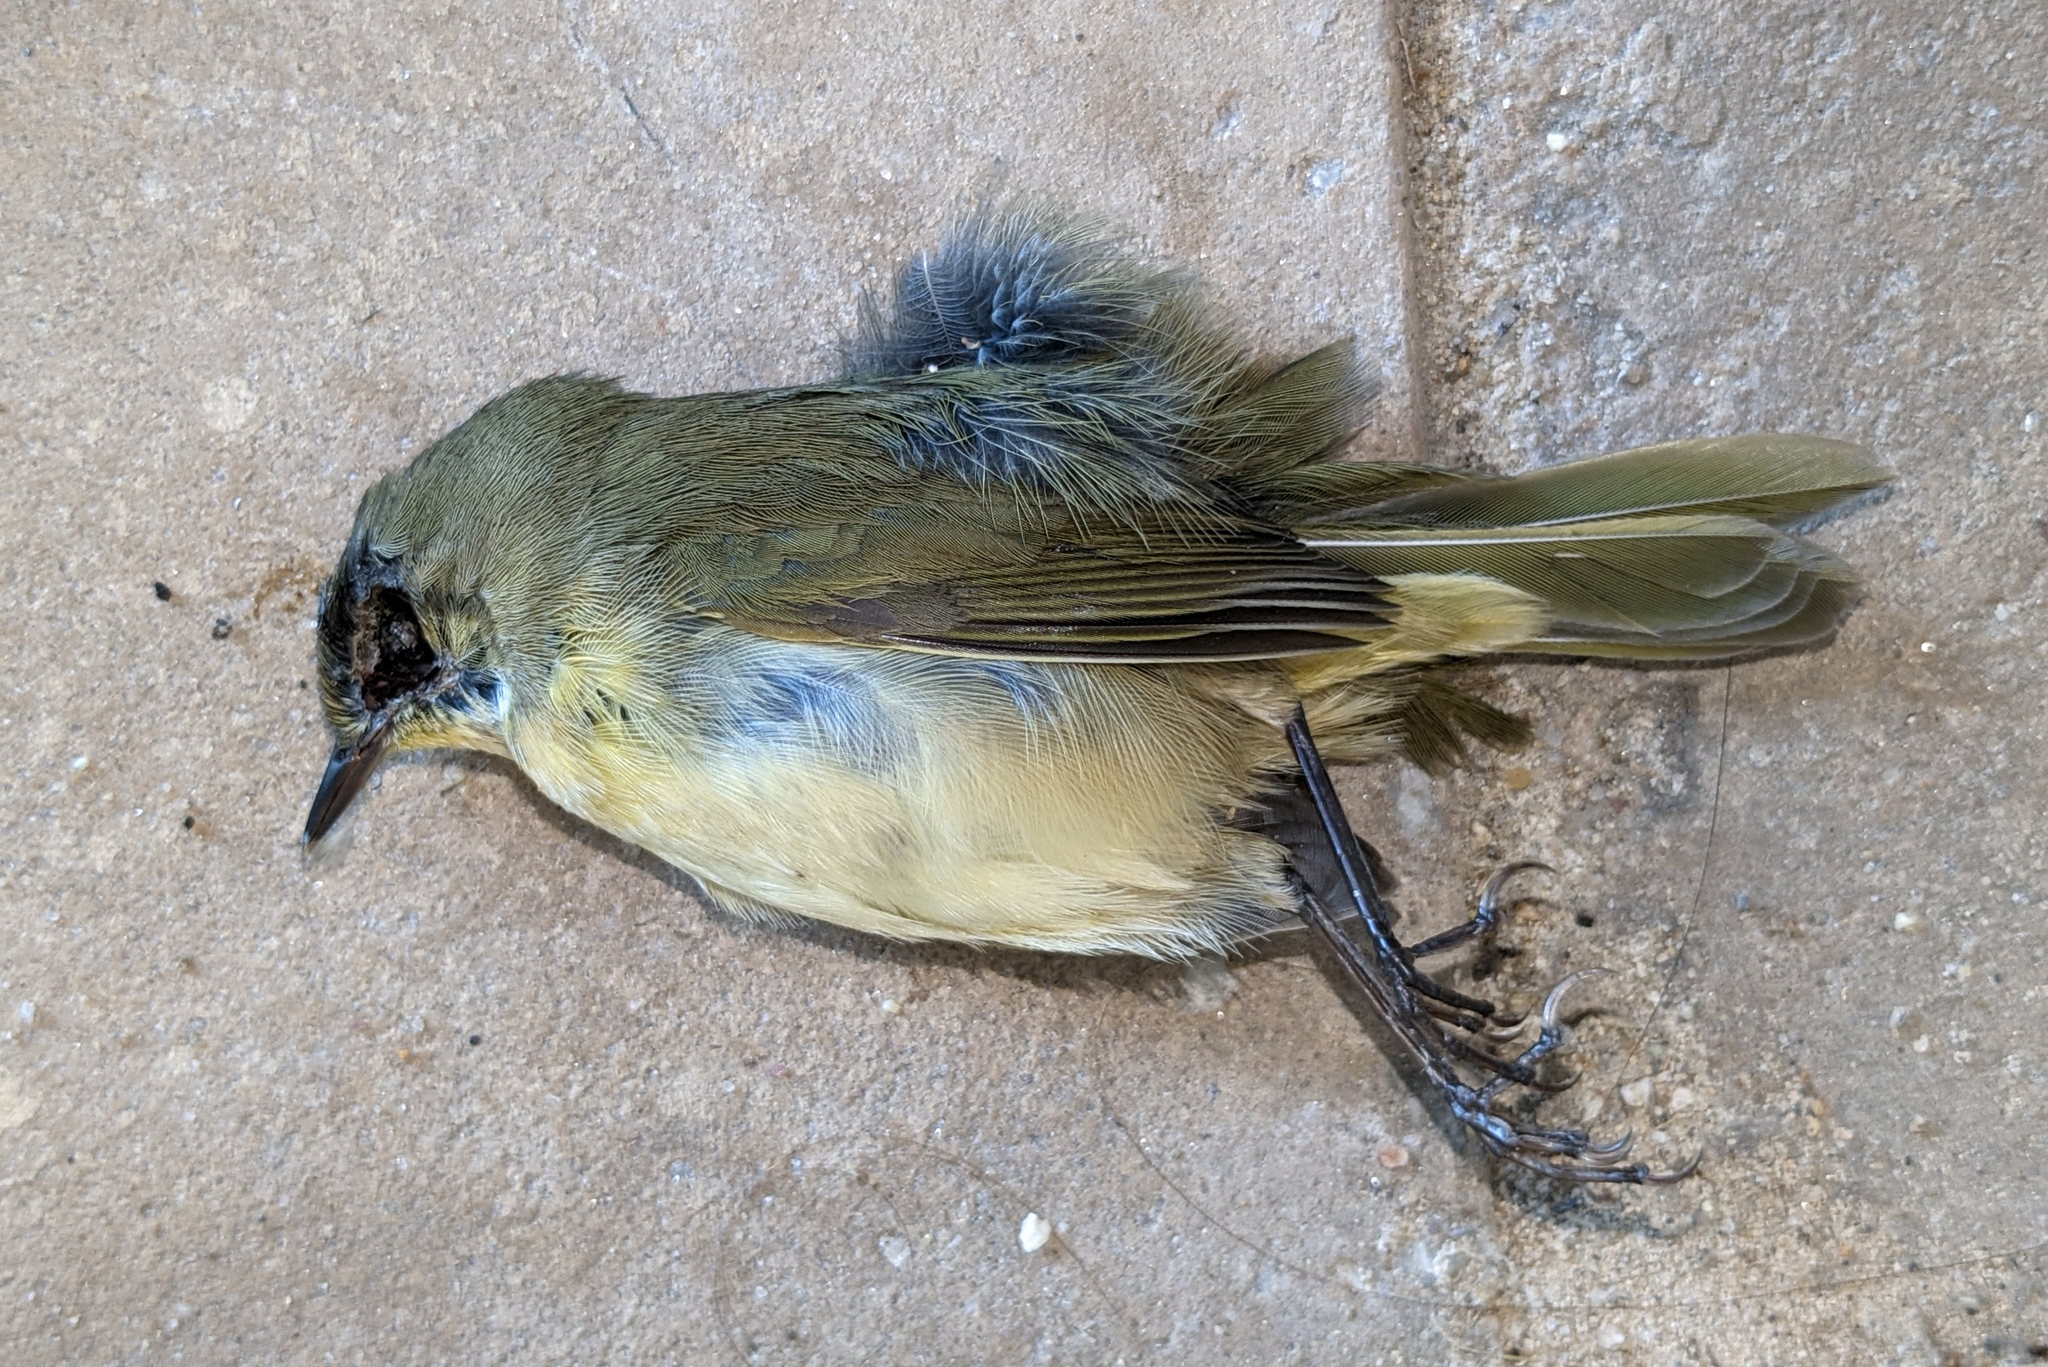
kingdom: Animalia
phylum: Chordata
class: Aves
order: Passeriformes
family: Parulidae
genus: Geothlypis
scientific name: Geothlypis trichas
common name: Common yellowthroat
